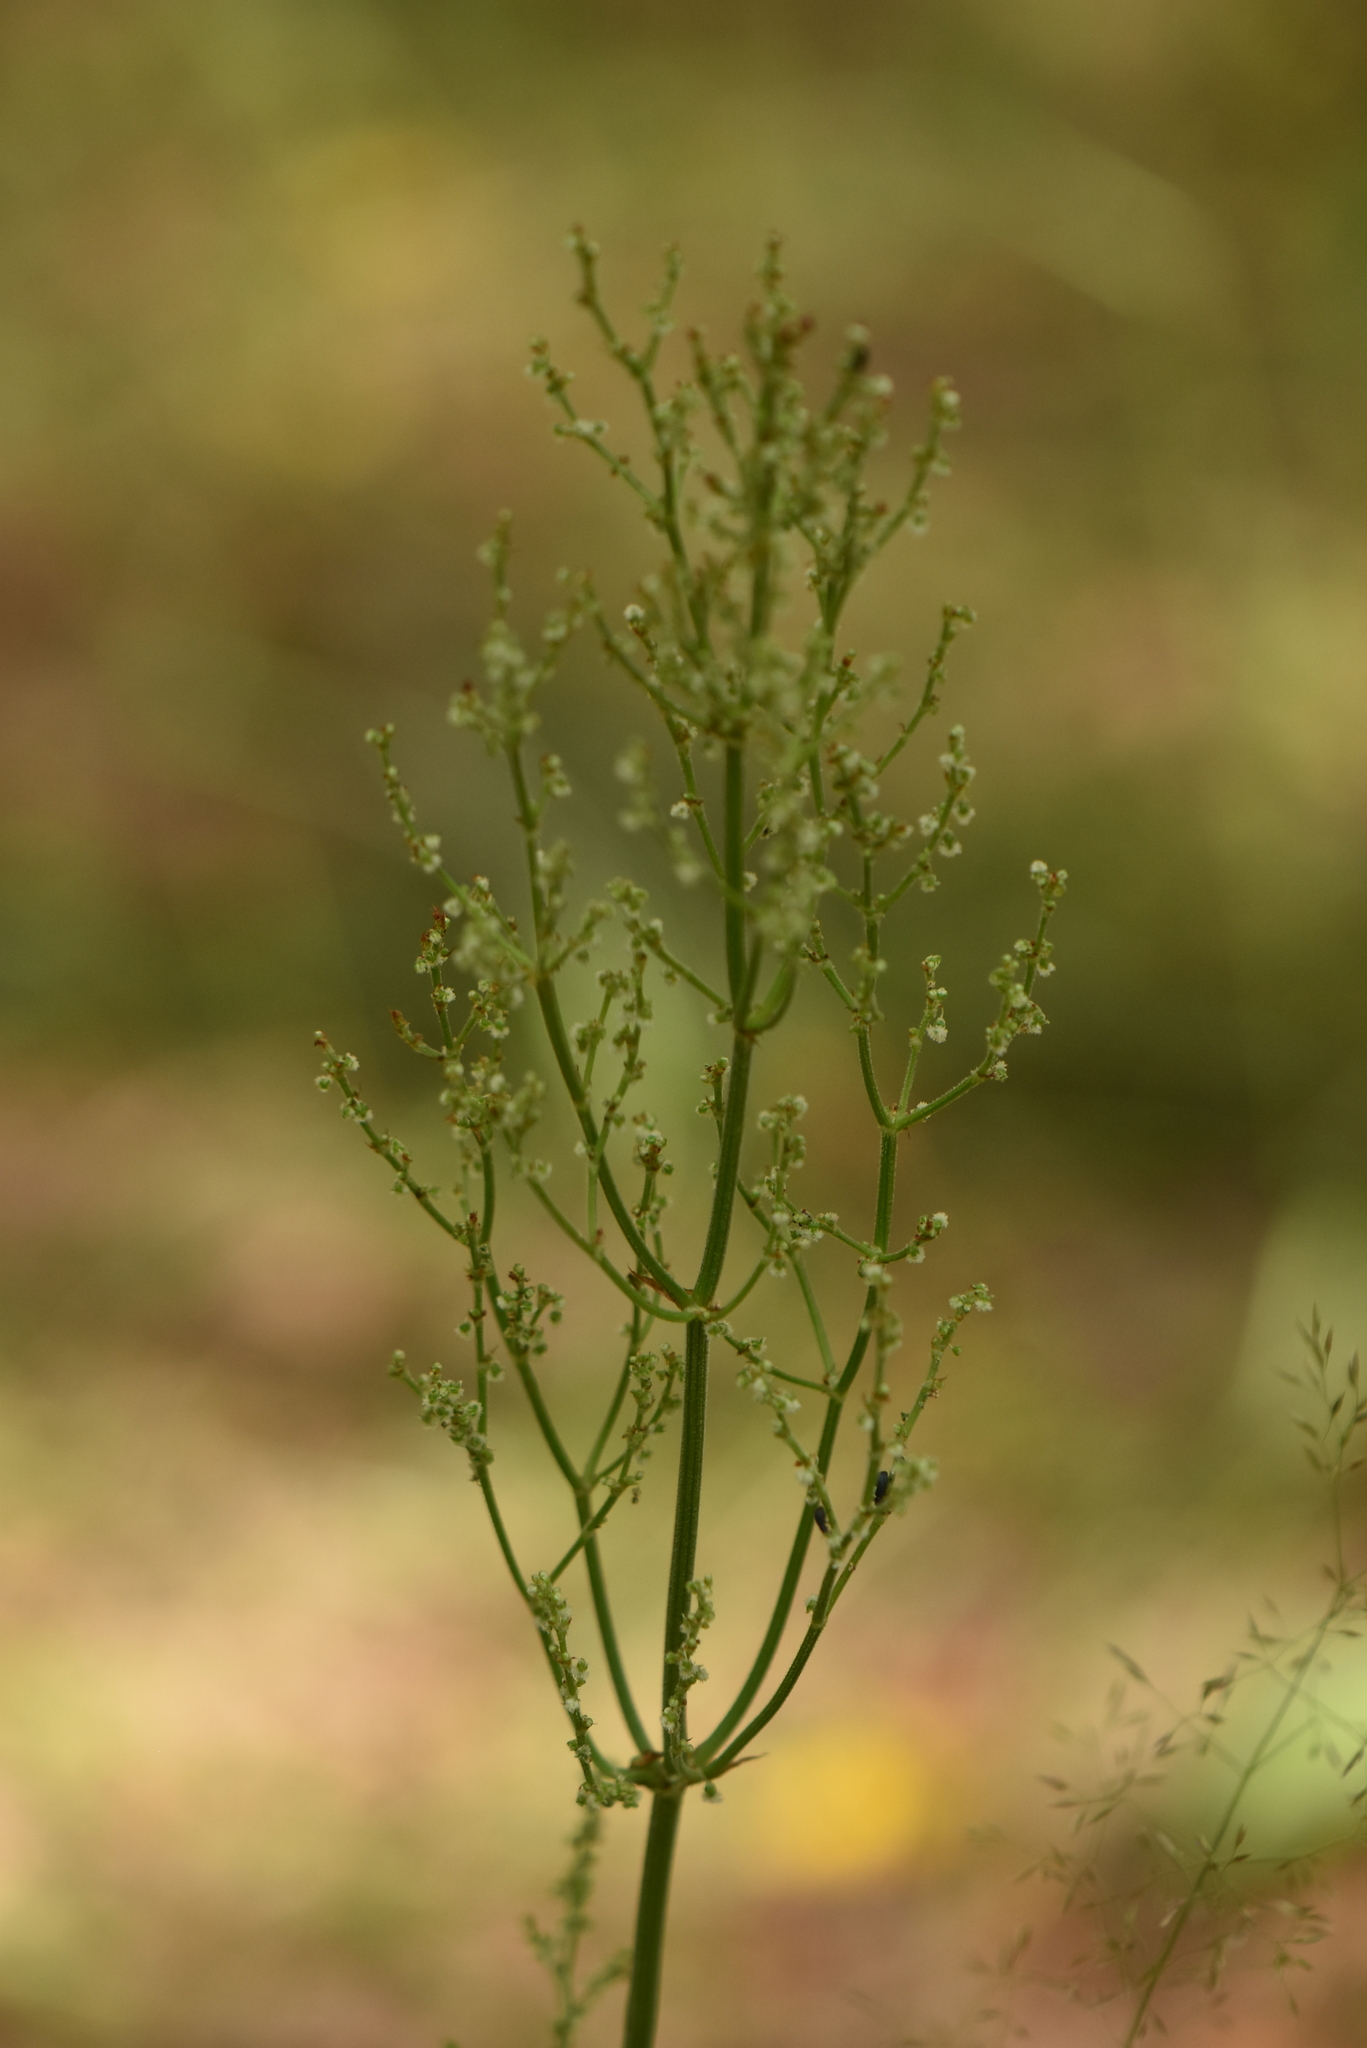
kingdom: Plantae
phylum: Tracheophyta
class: Magnoliopsida
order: Caryophyllales
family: Polygonaceae
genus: Rumex
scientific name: Rumex thyrsiflorus
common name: Garden sorrel
